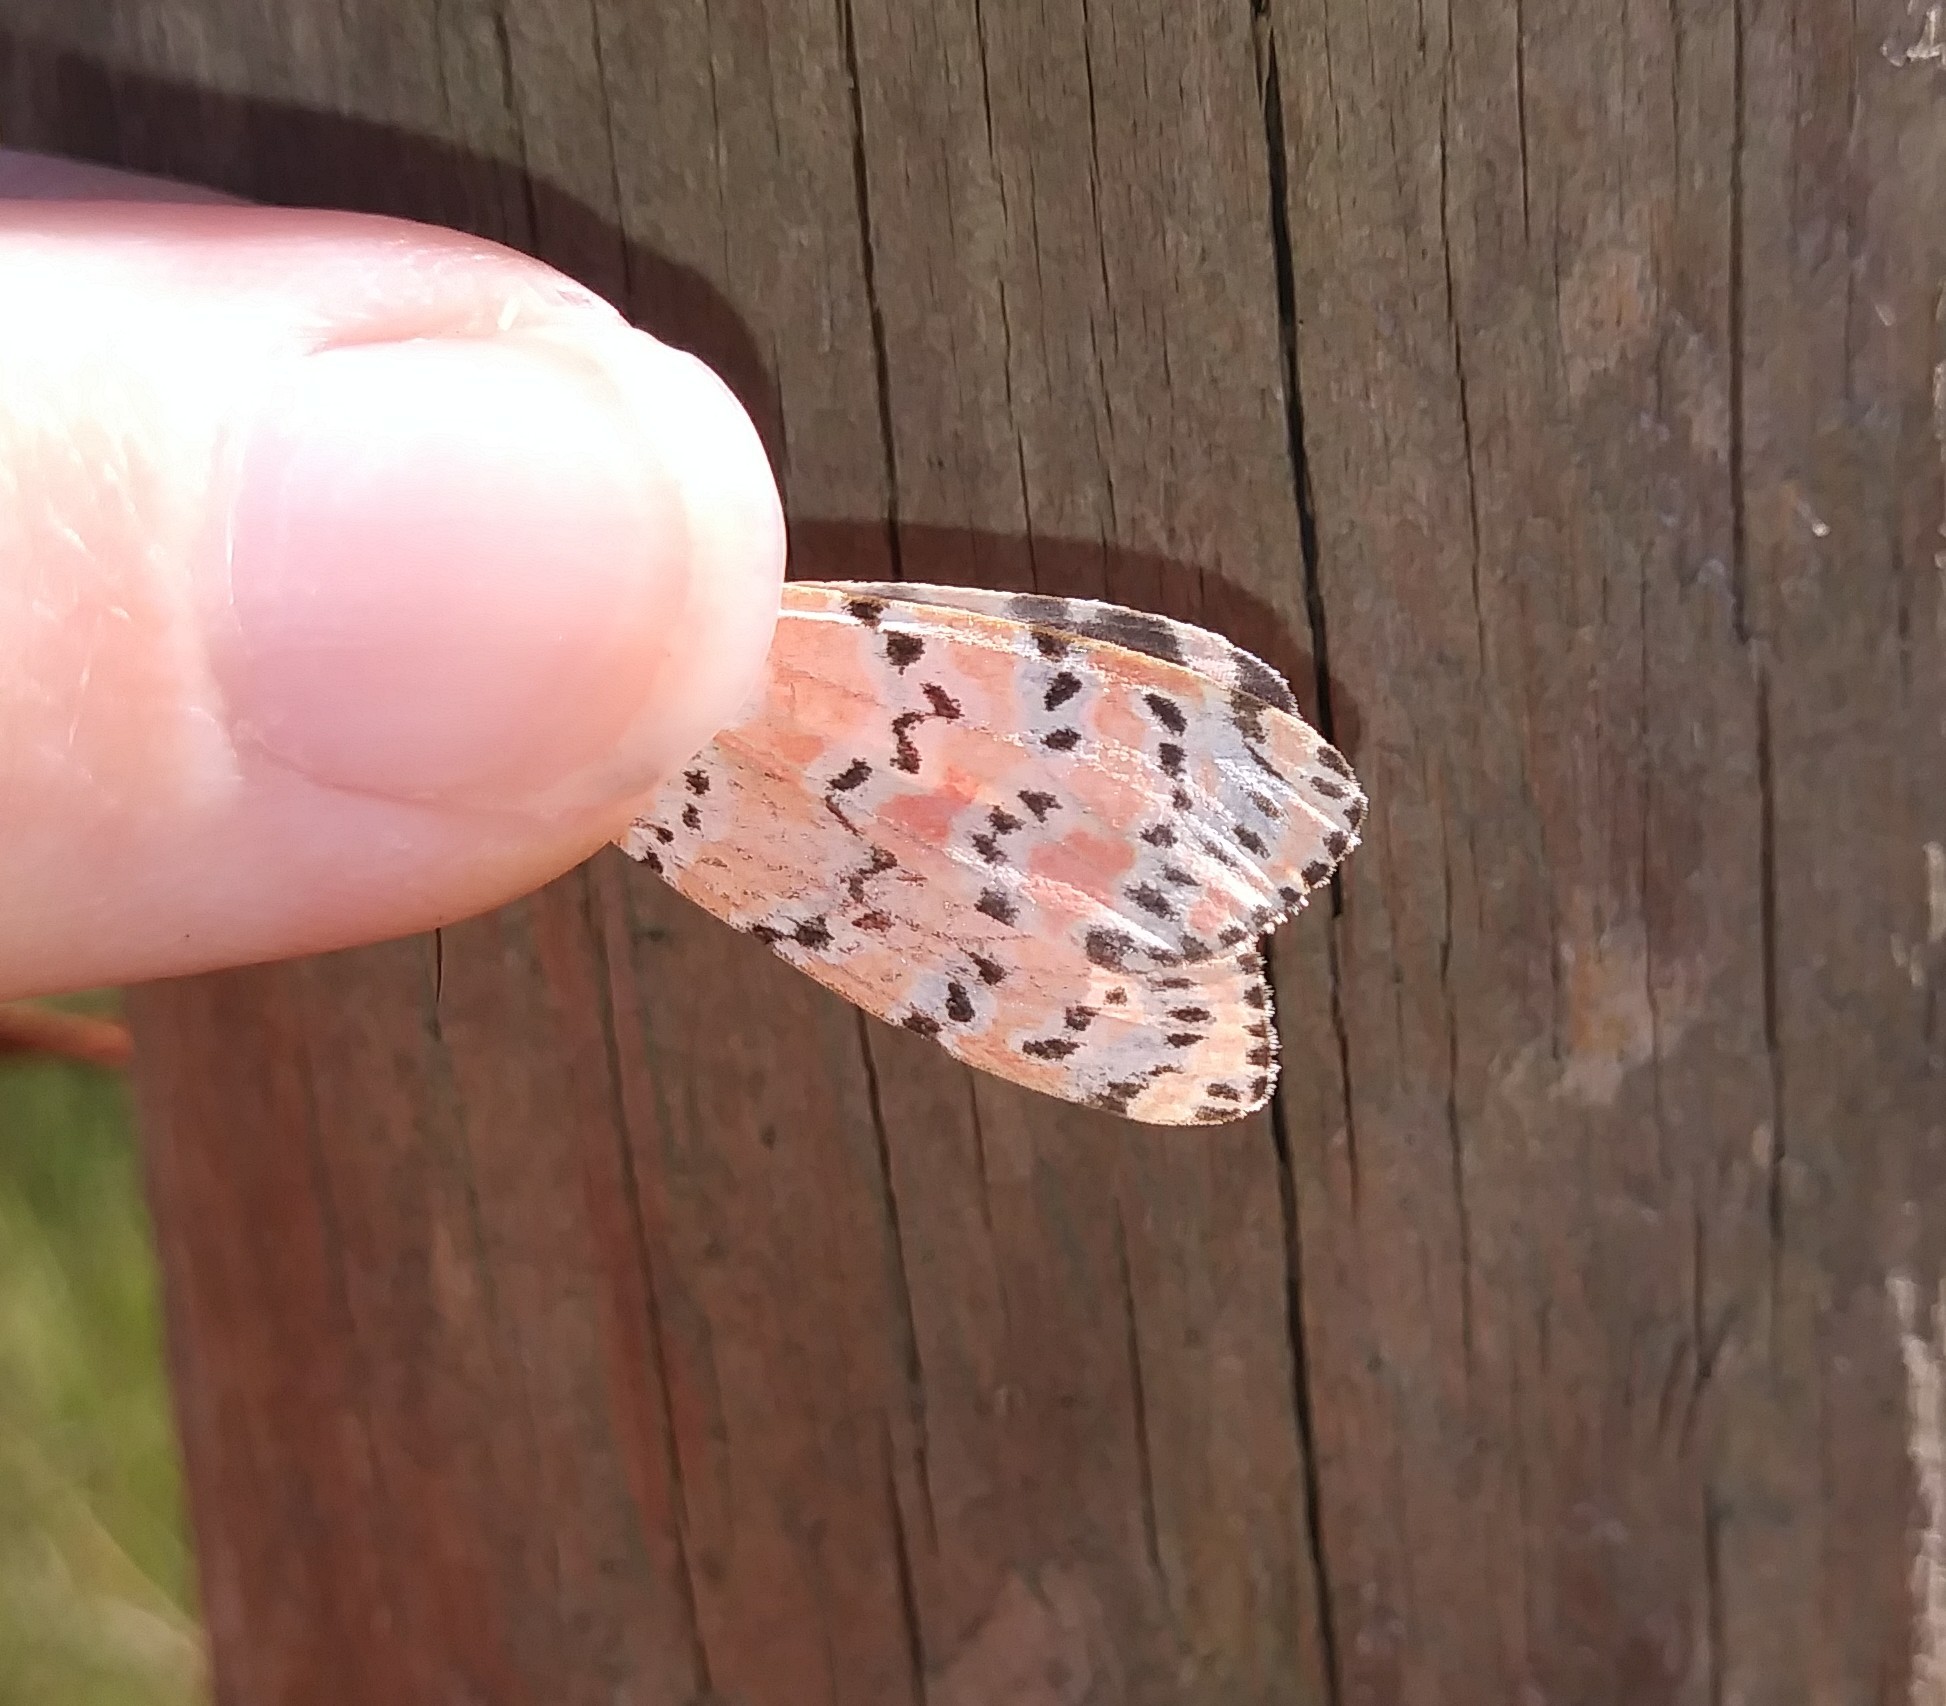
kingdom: Animalia
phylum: Arthropoda
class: Insecta
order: Lepidoptera
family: Erebidae
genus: Utetheisa
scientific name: Utetheisa ornatrix
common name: Beautiful utetheisa
